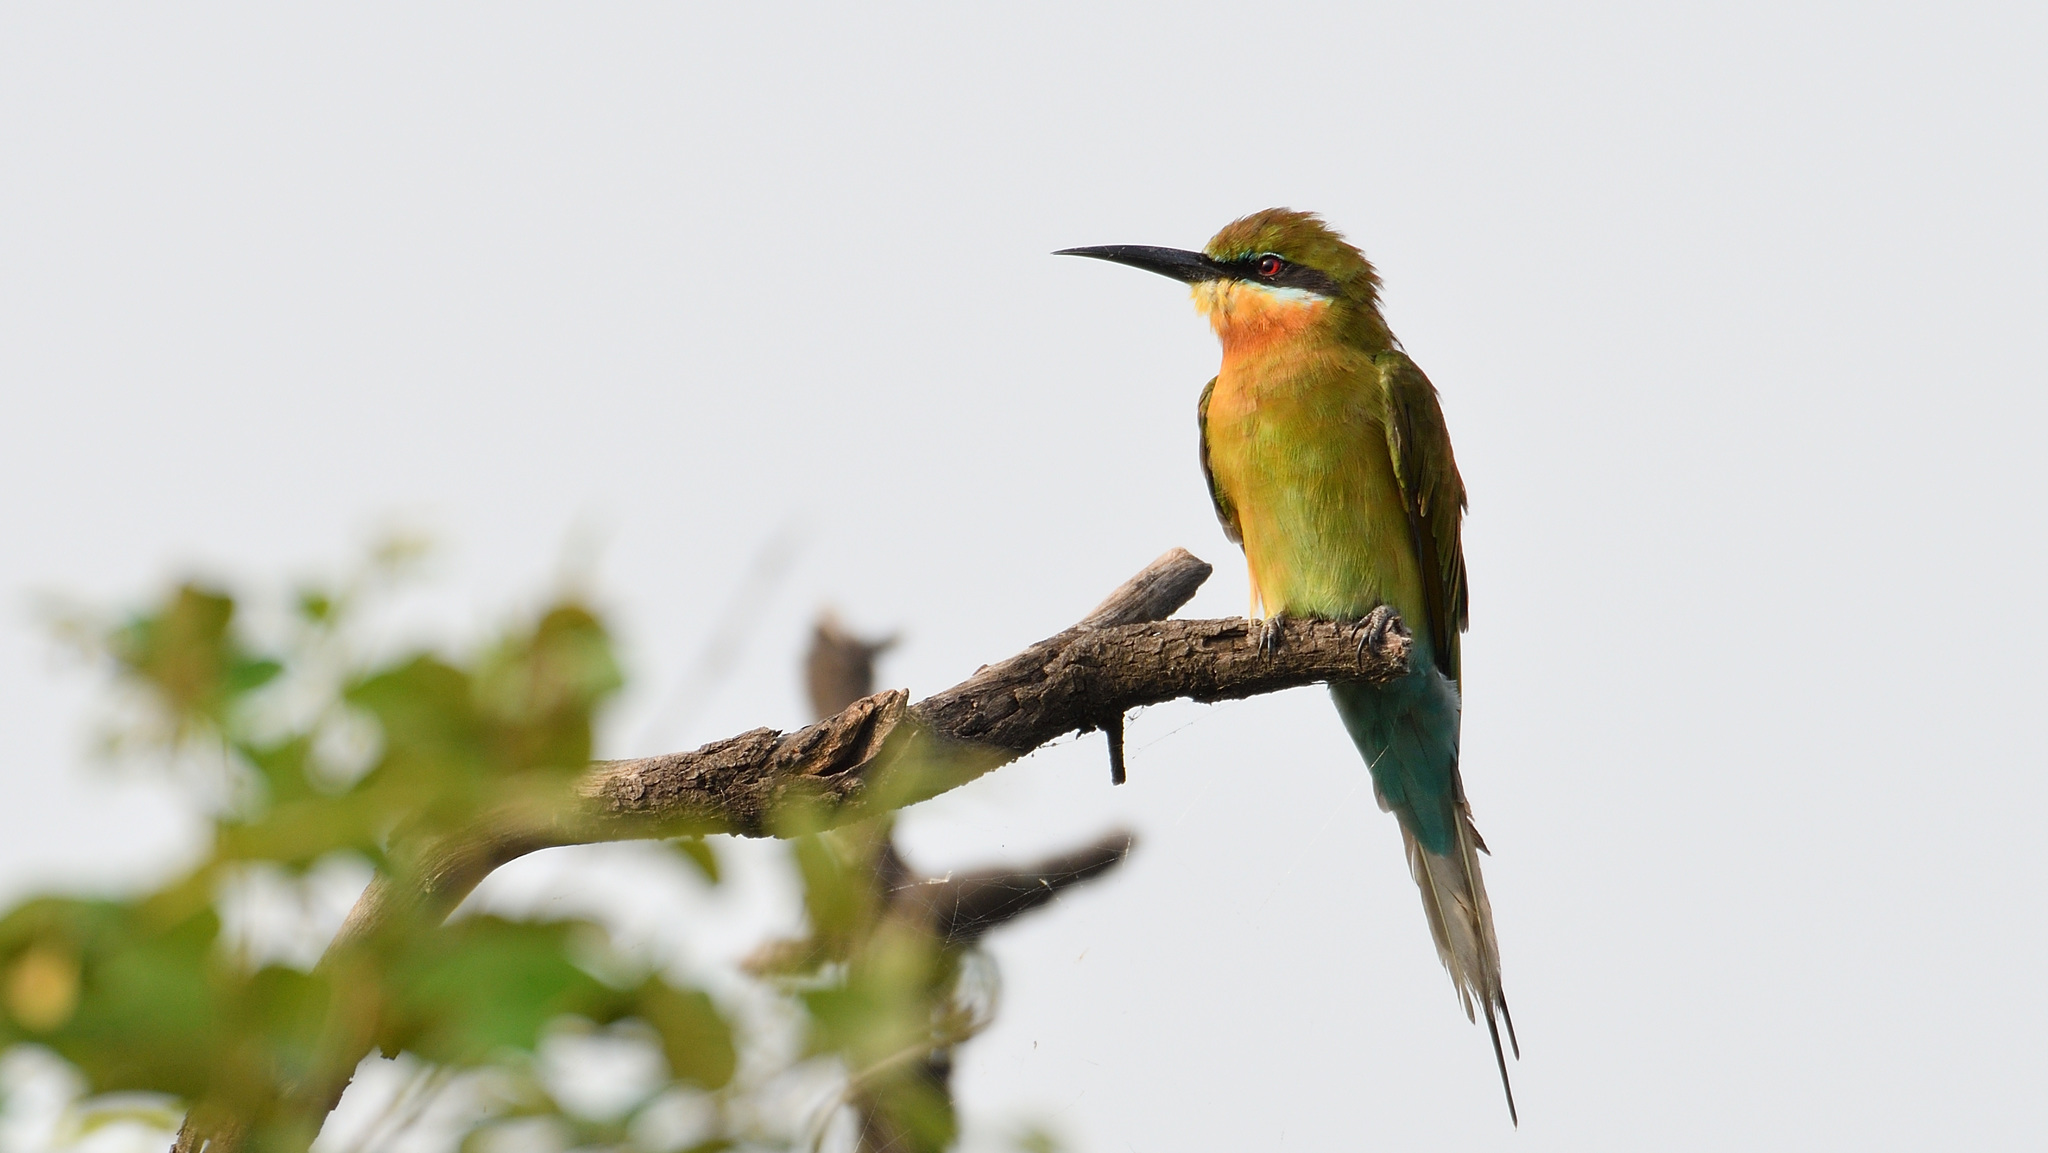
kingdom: Animalia
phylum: Chordata
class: Aves
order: Coraciiformes
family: Meropidae
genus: Merops
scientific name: Merops philippinus
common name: Blue-tailed bee-eater
